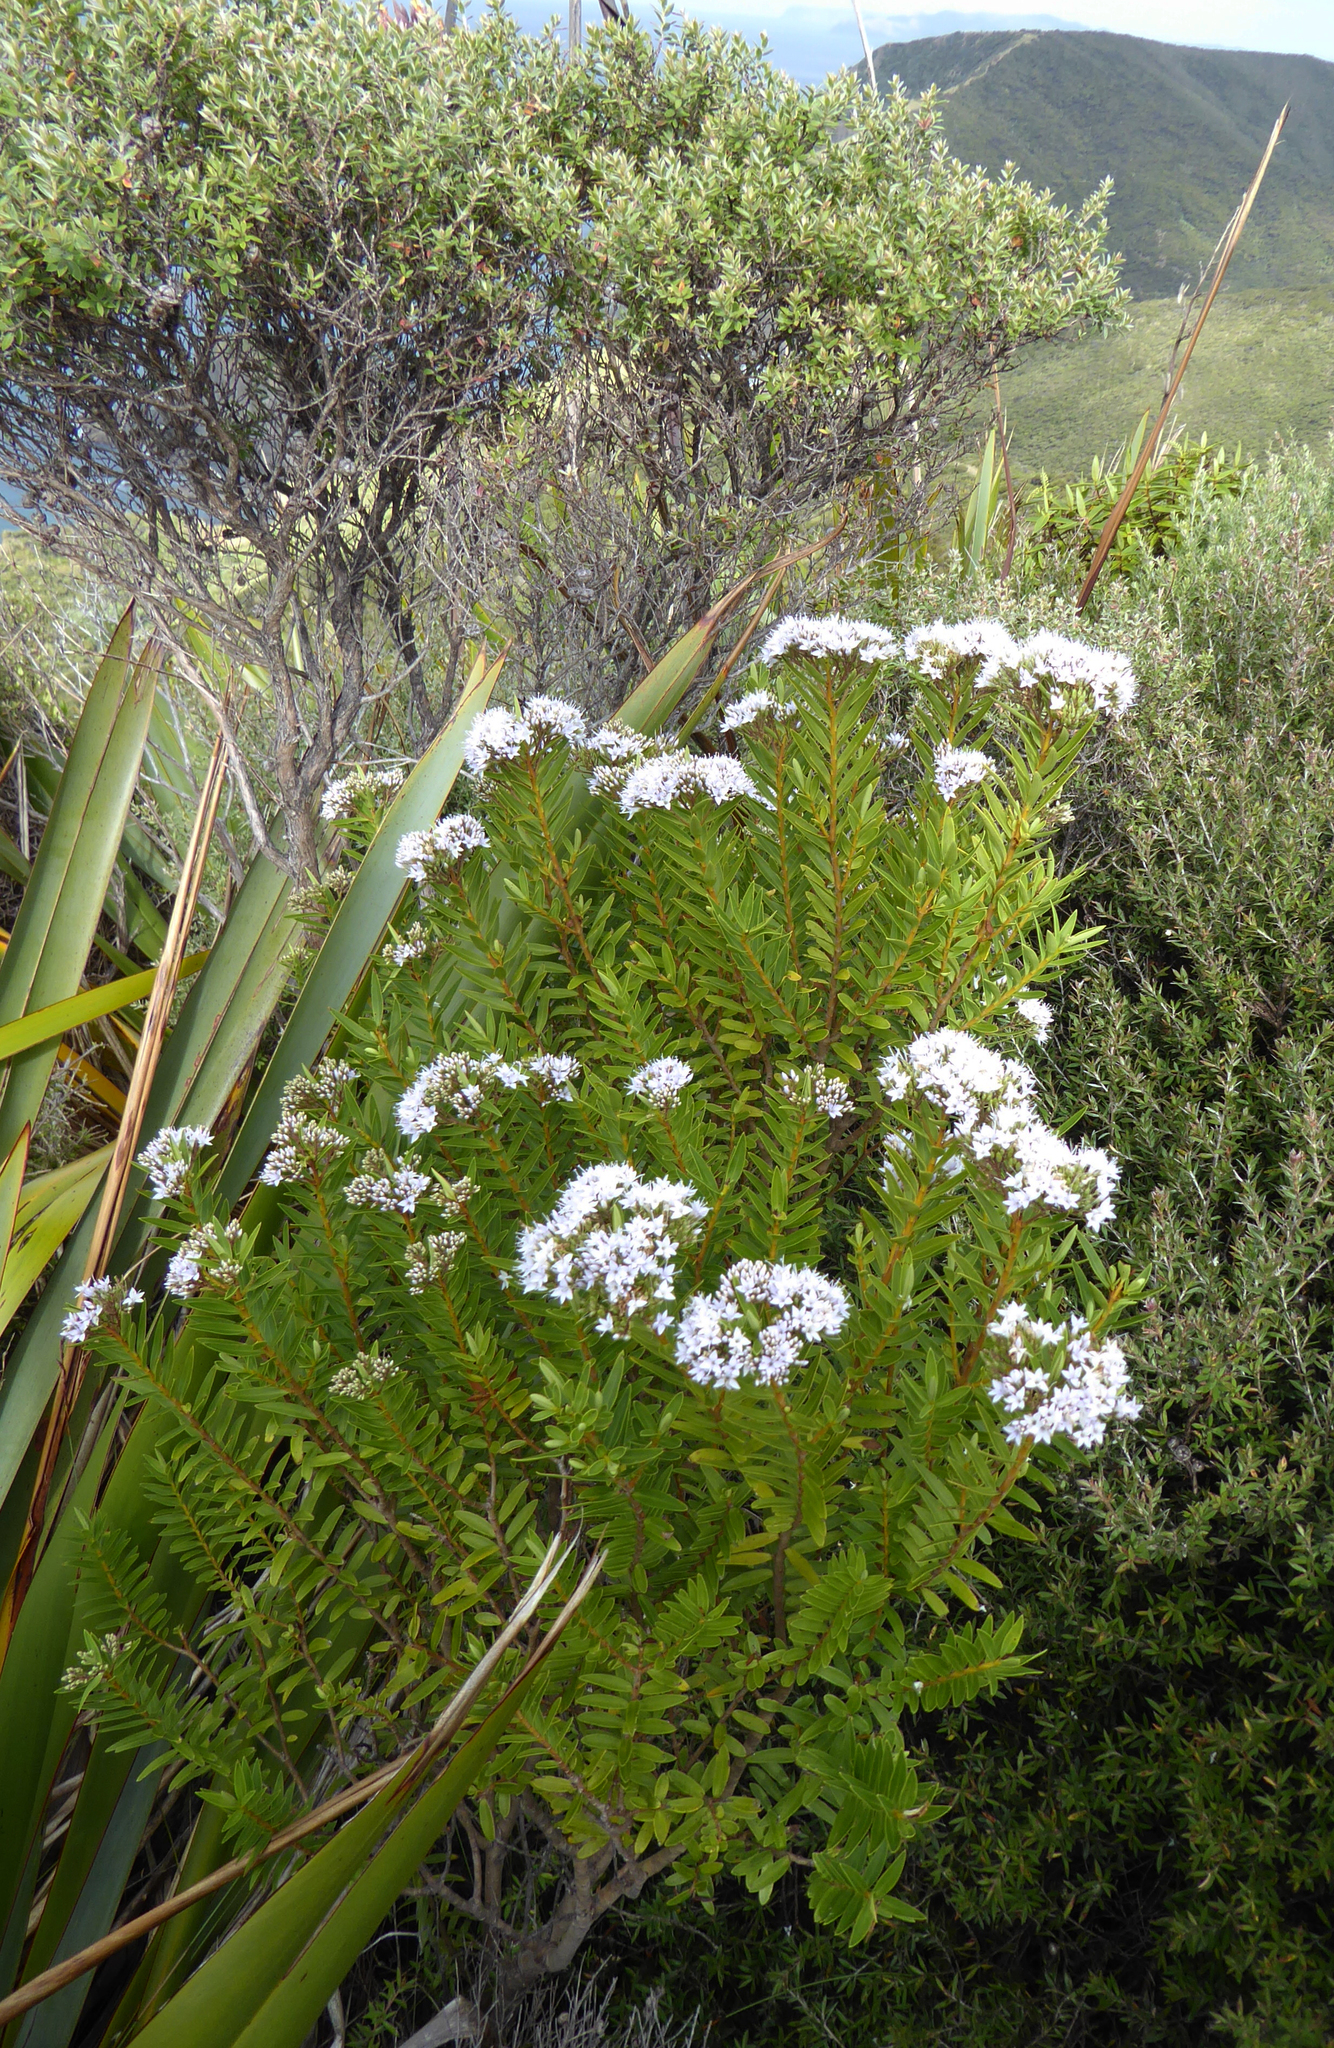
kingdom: Plantae
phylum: Tracheophyta
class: Magnoliopsida
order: Lamiales
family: Plantaginaceae
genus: Veronica
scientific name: Veronica diosmifolia
